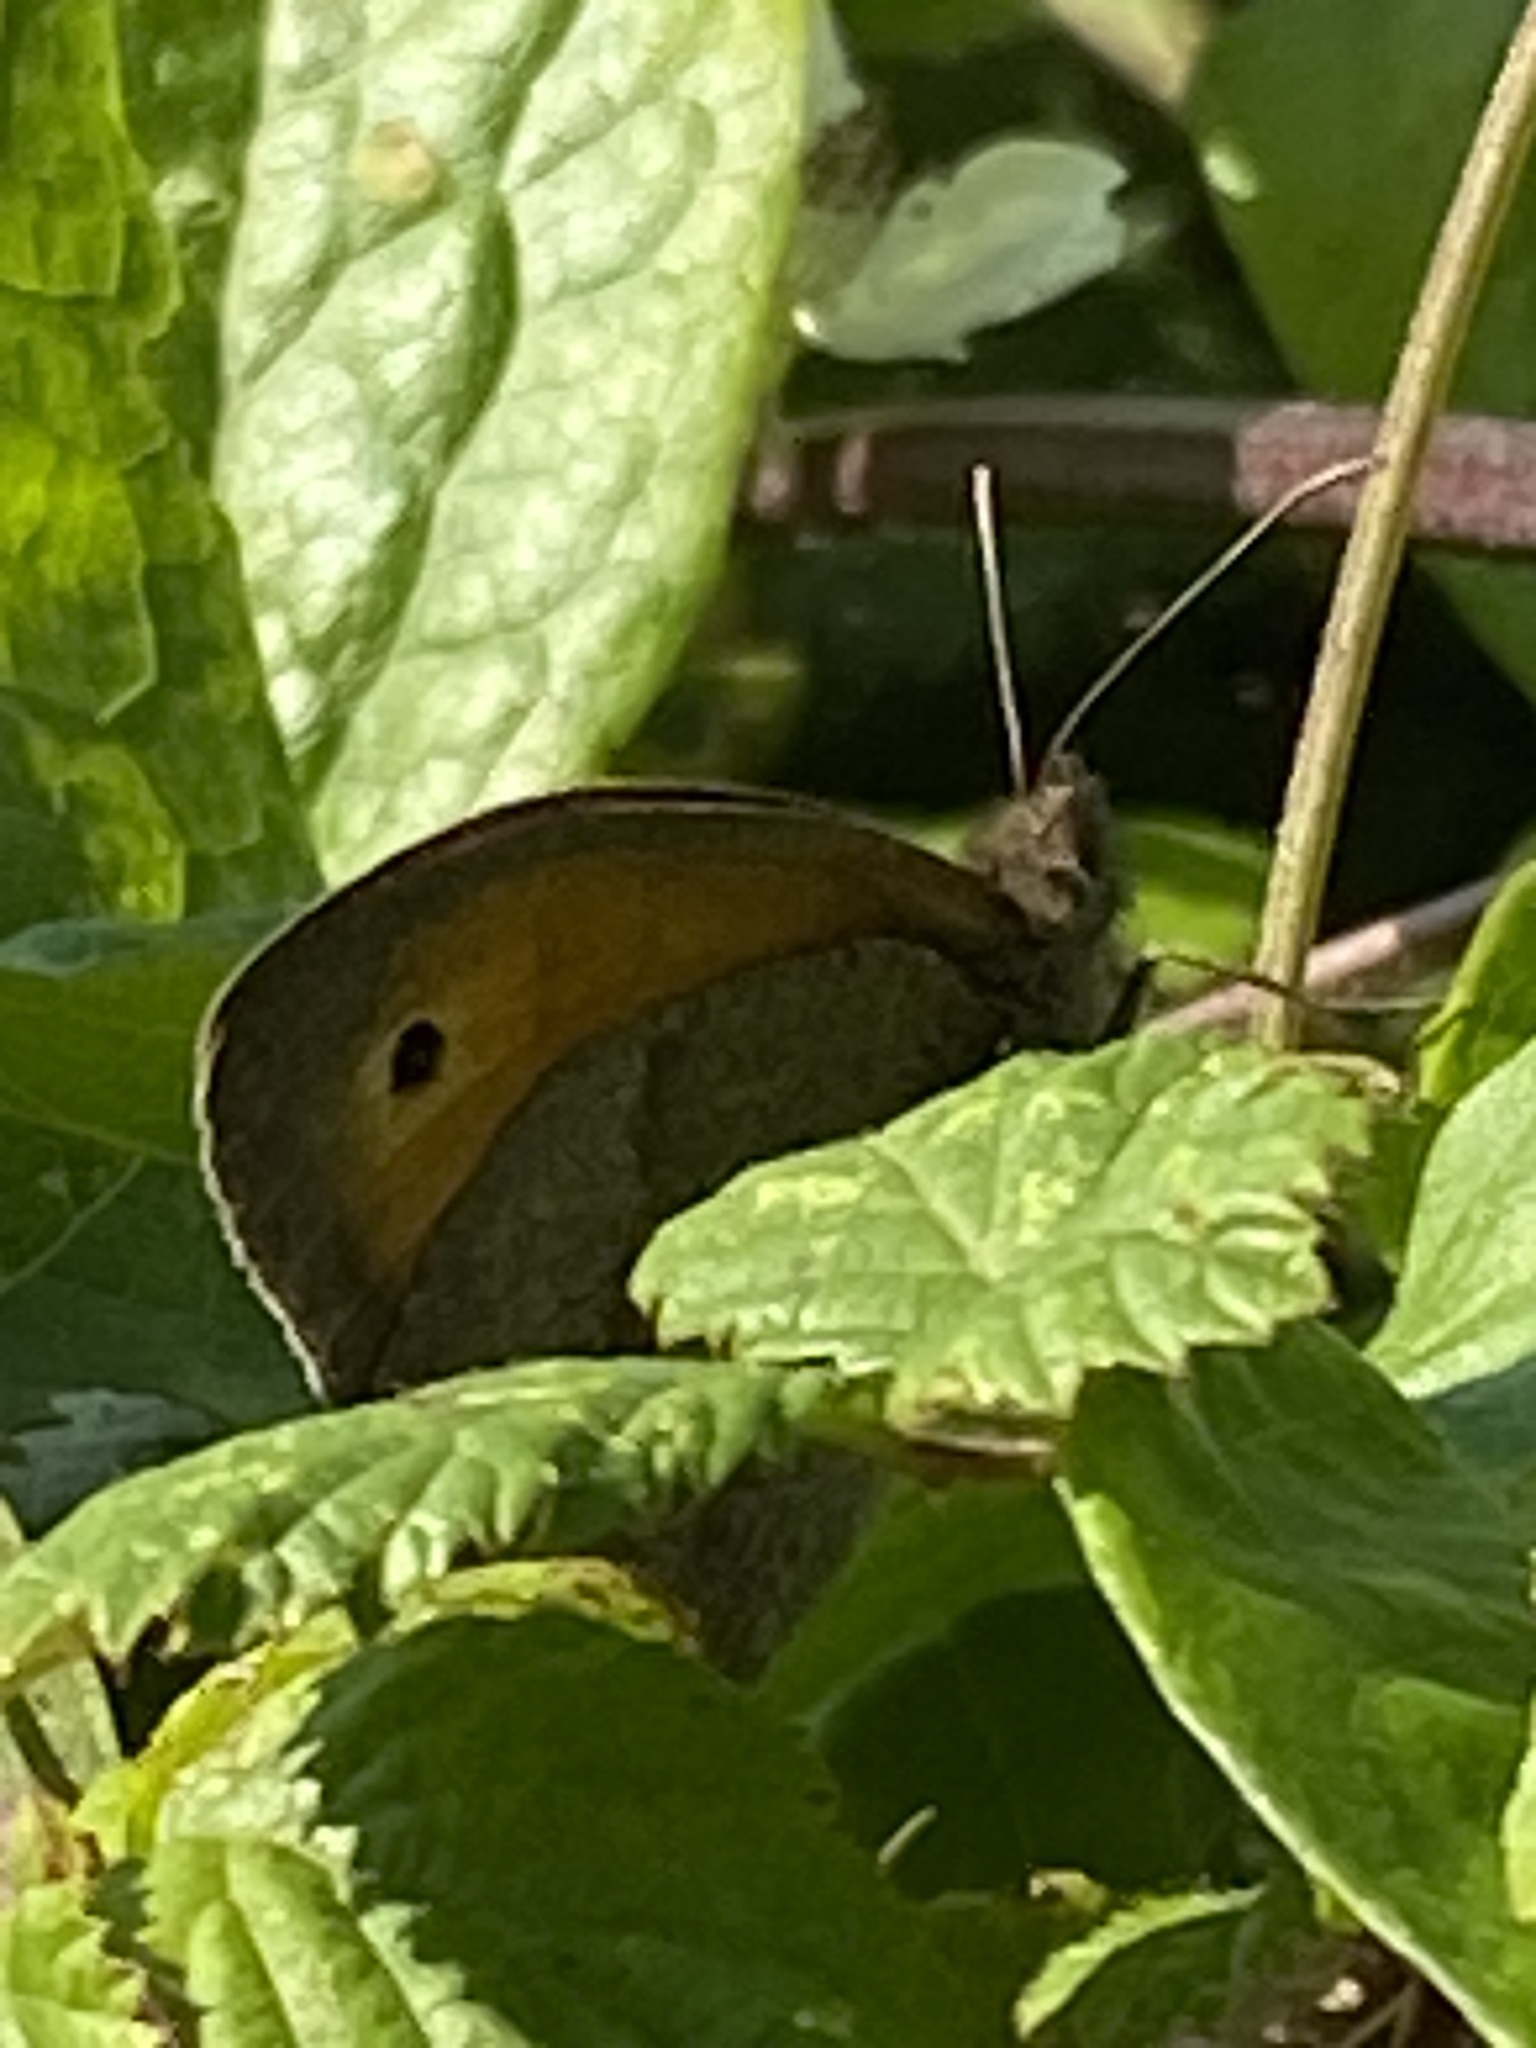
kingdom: Animalia
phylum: Arthropoda
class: Insecta
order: Lepidoptera
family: Nymphalidae
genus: Maniola
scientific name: Maniola jurtina
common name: Meadow brown
